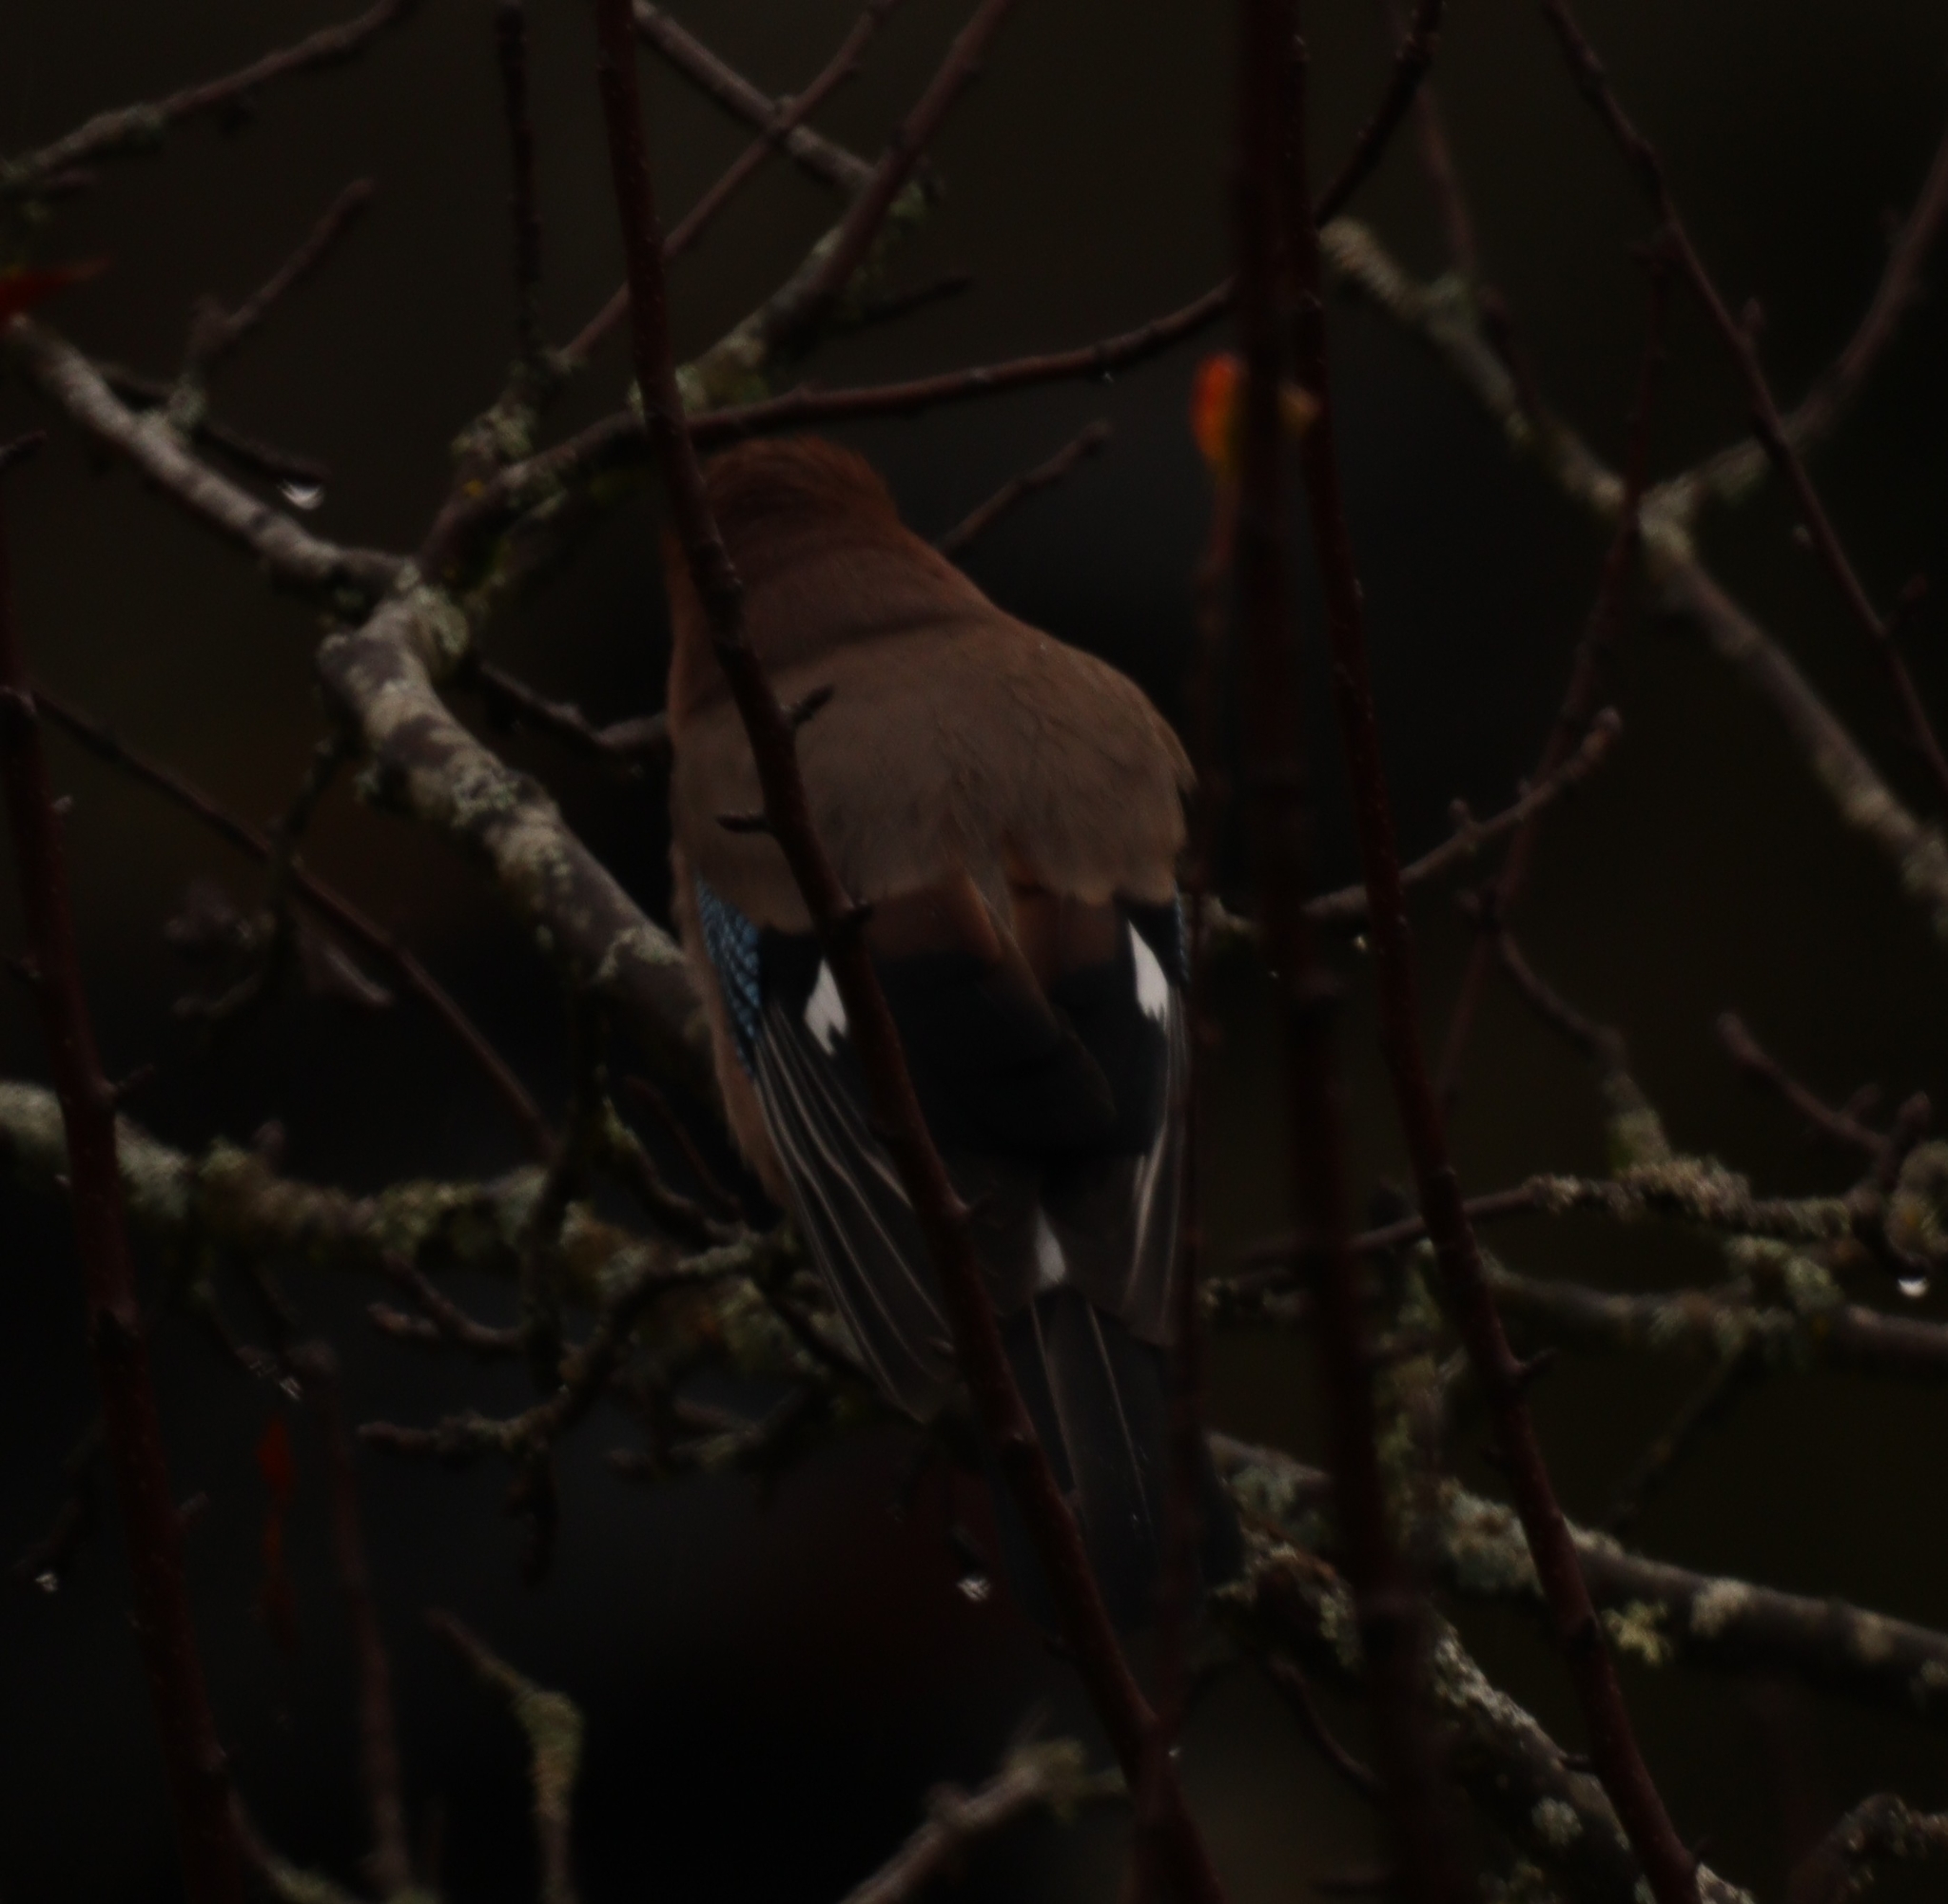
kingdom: Animalia
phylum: Chordata
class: Aves
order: Passeriformes
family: Corvidae
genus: Garrulus
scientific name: Garrulus glandarius
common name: Eurasian jay
